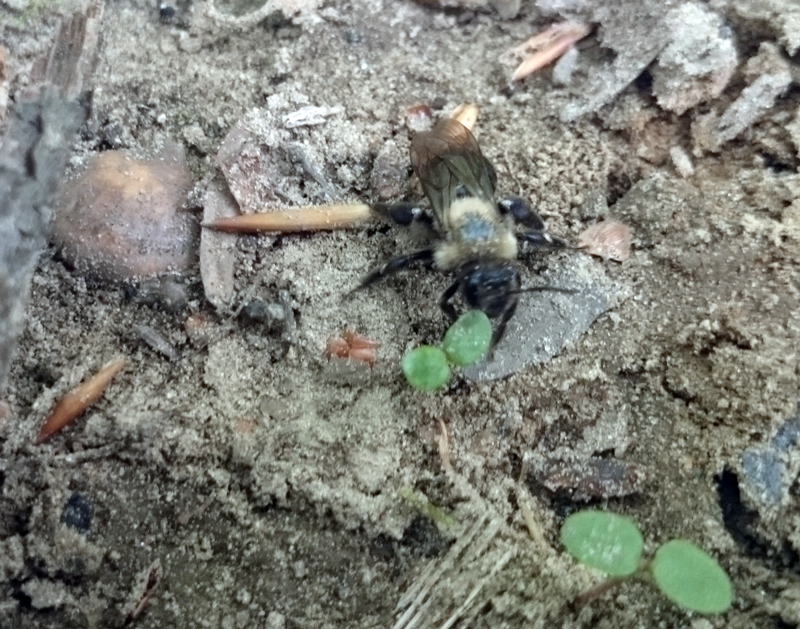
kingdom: Animalia
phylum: Arthropoda
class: Insecta
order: Hymenoptera
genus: Melandrena
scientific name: Melandrena
